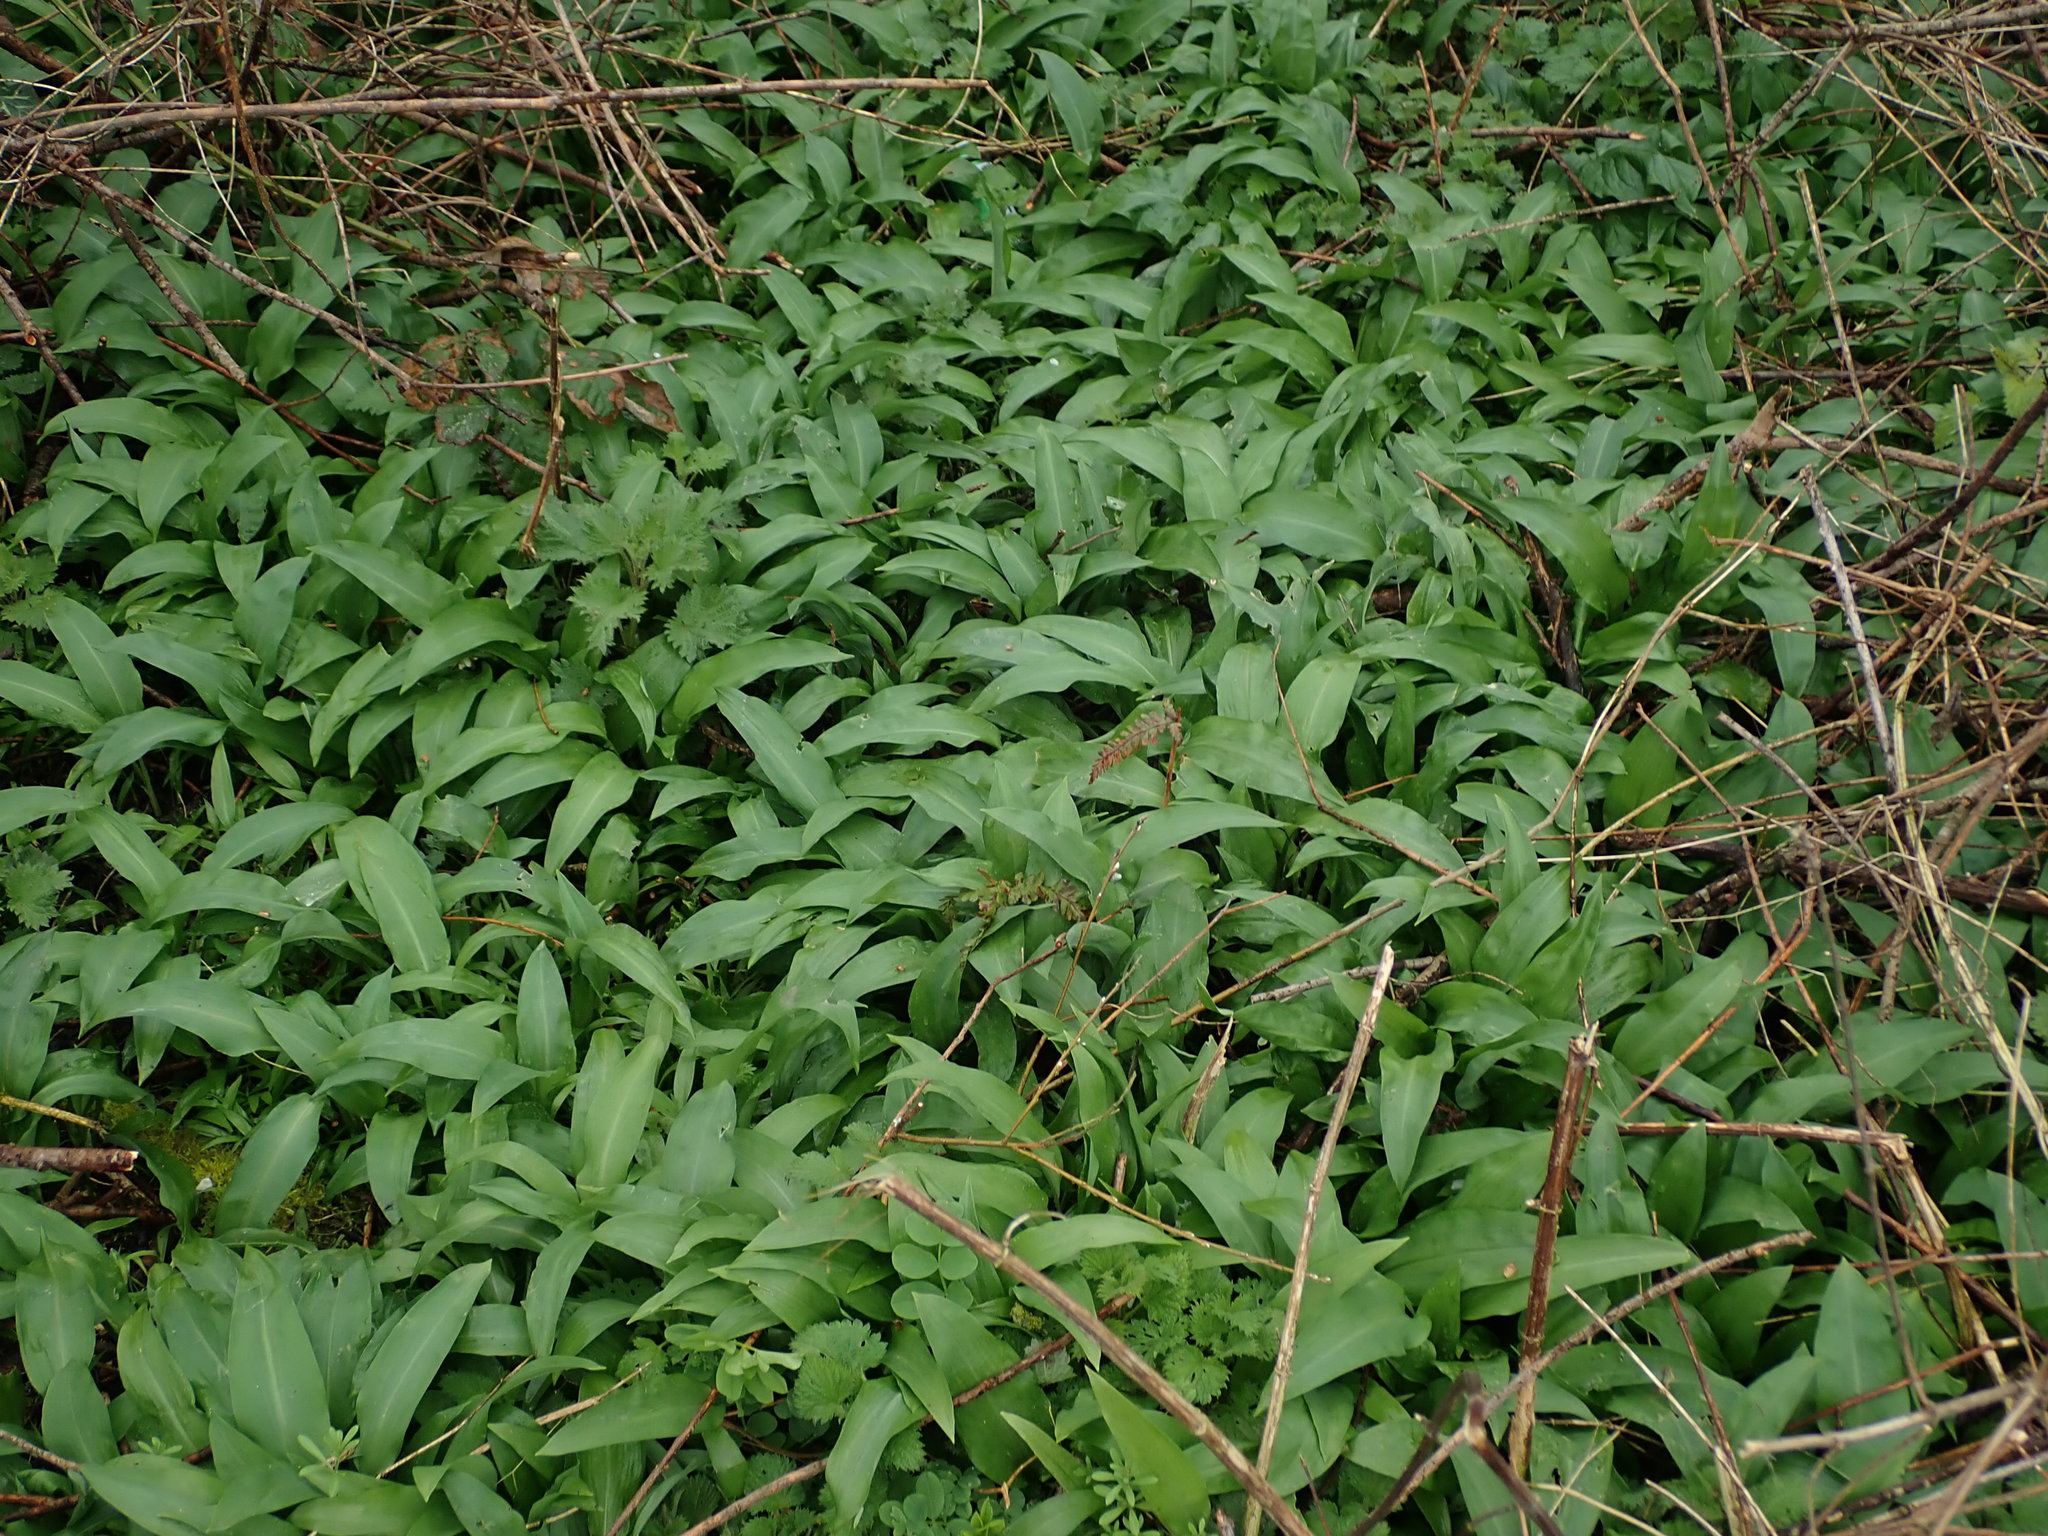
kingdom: Plantae
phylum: Tracheophyta
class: Liliopsida
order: Asparagales
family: Amaryllidaceae
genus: Allium
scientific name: Allium ursinum
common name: Ramsons
